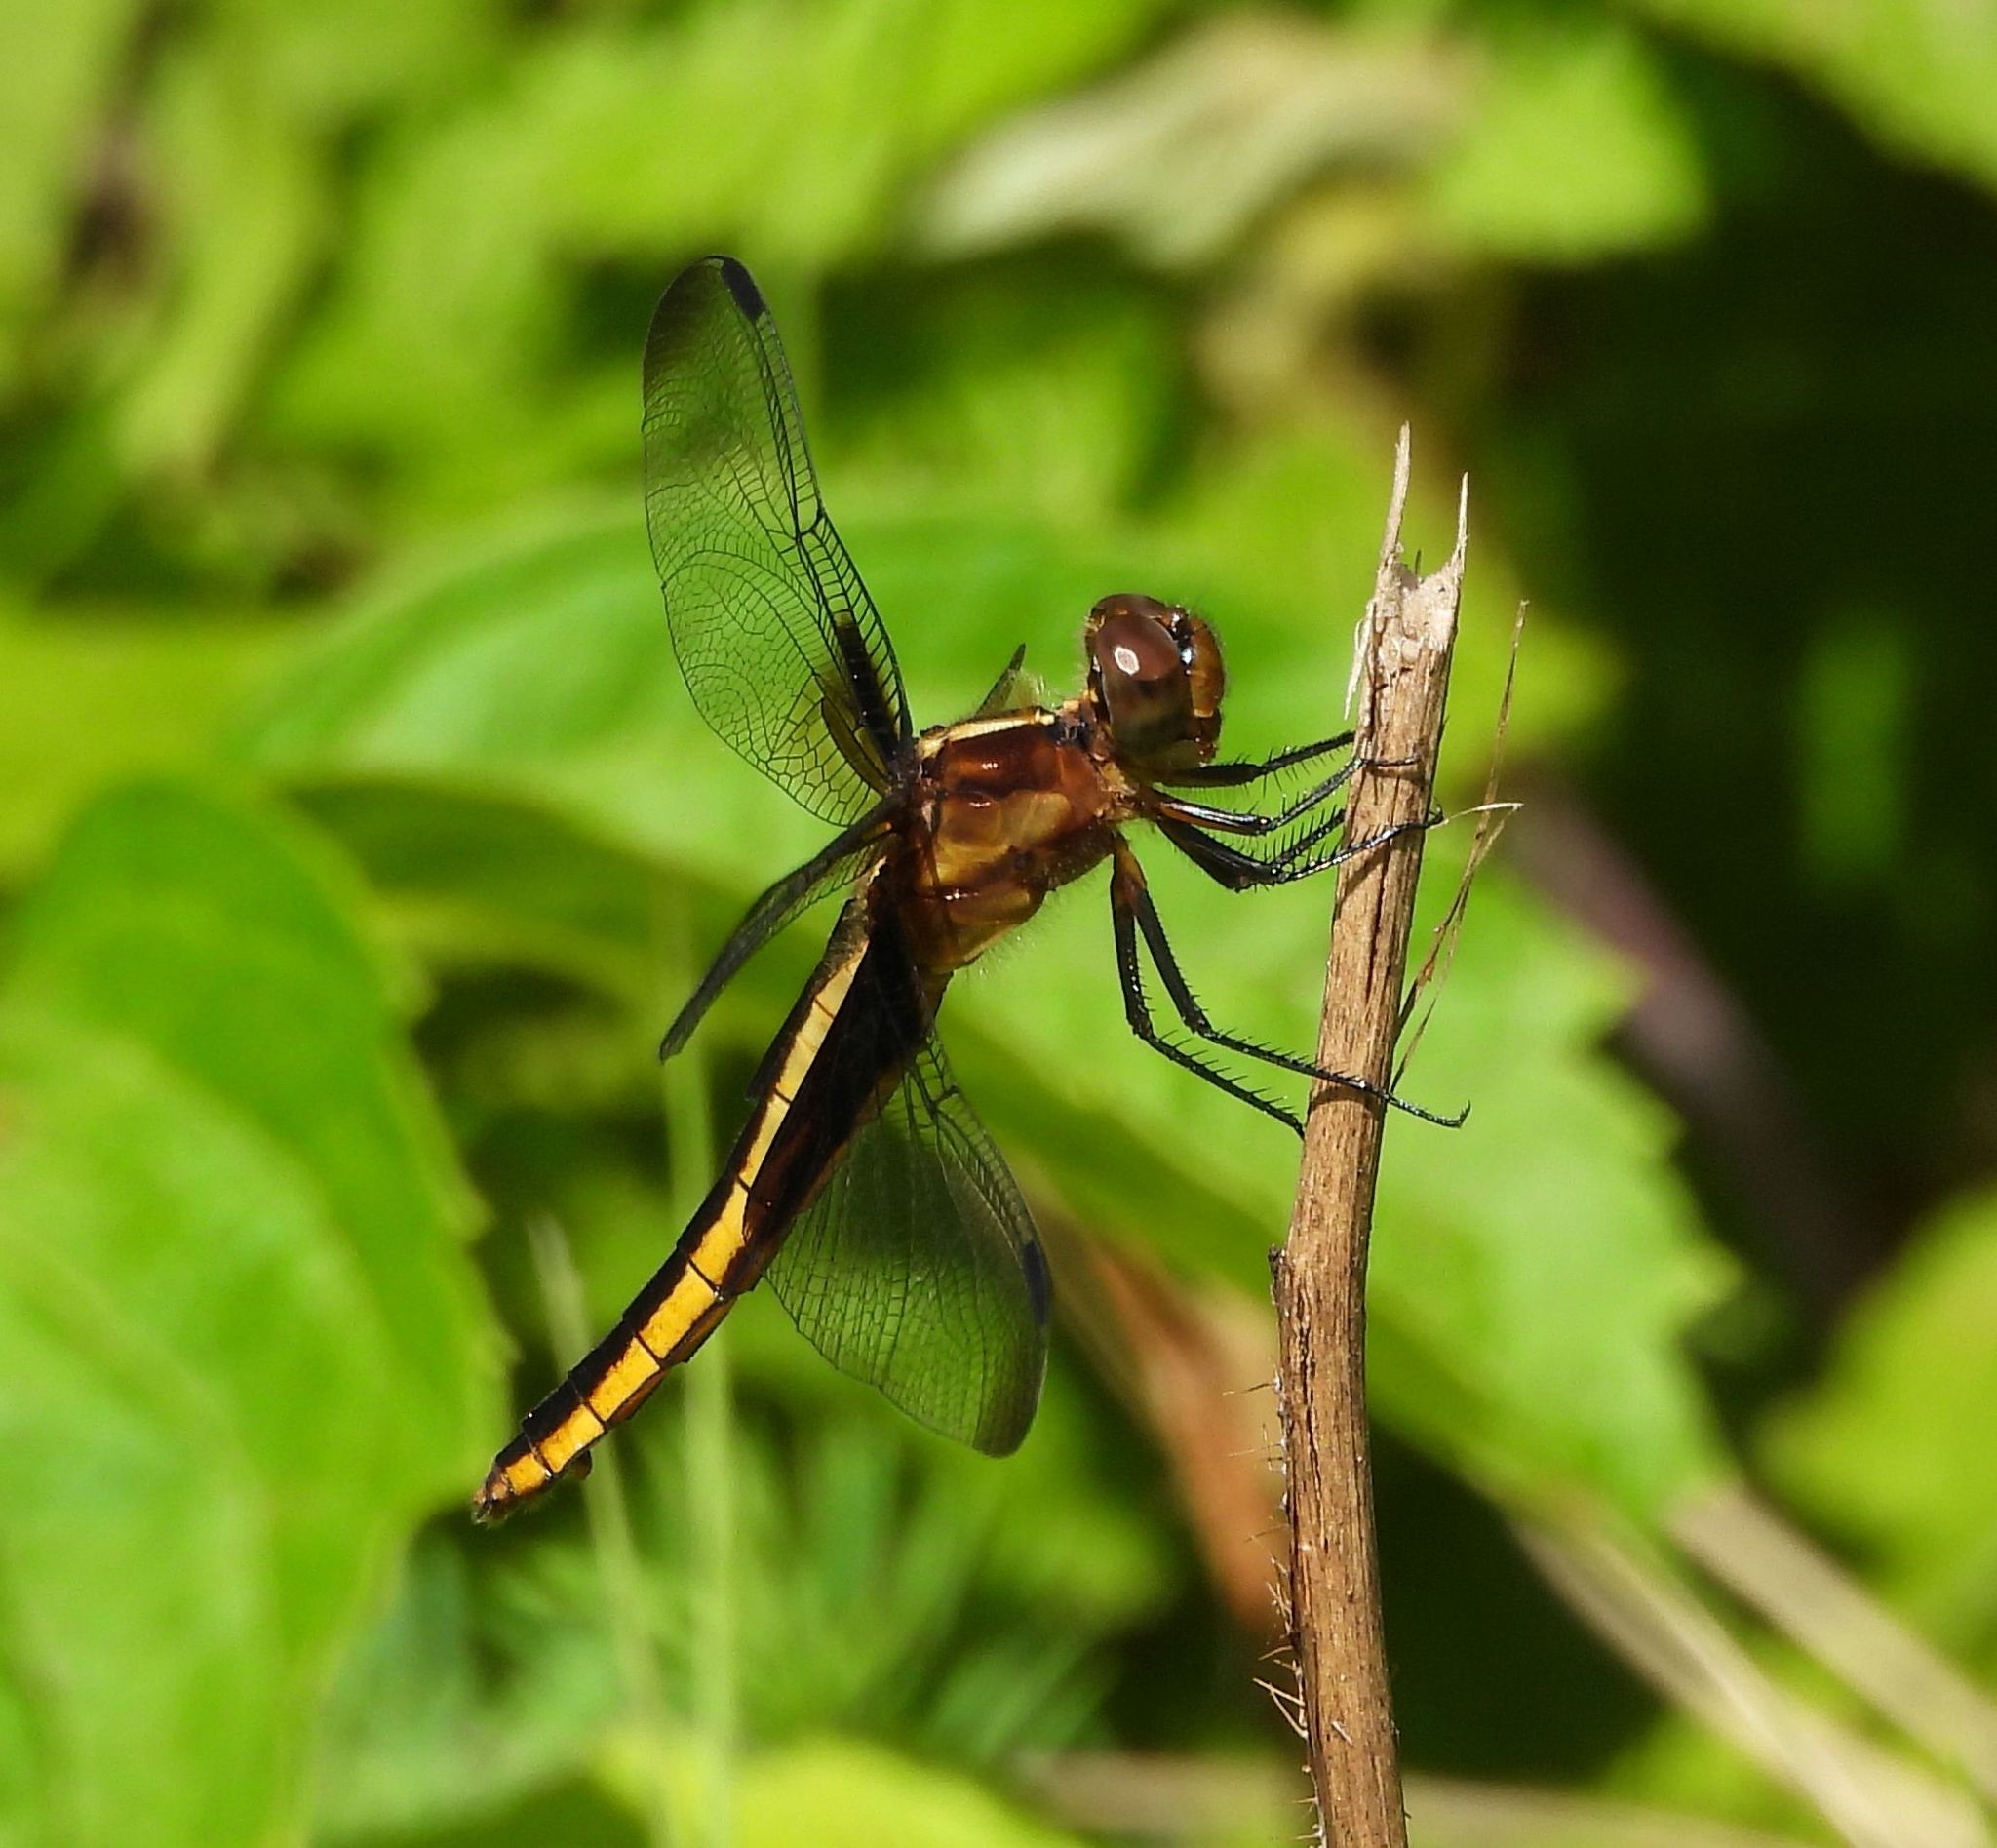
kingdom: Animalia
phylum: Arthropoda
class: Insecta
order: Odonata
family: Libellulidae
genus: Libellula
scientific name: Libellula luctuosa
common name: Widow skimmer
